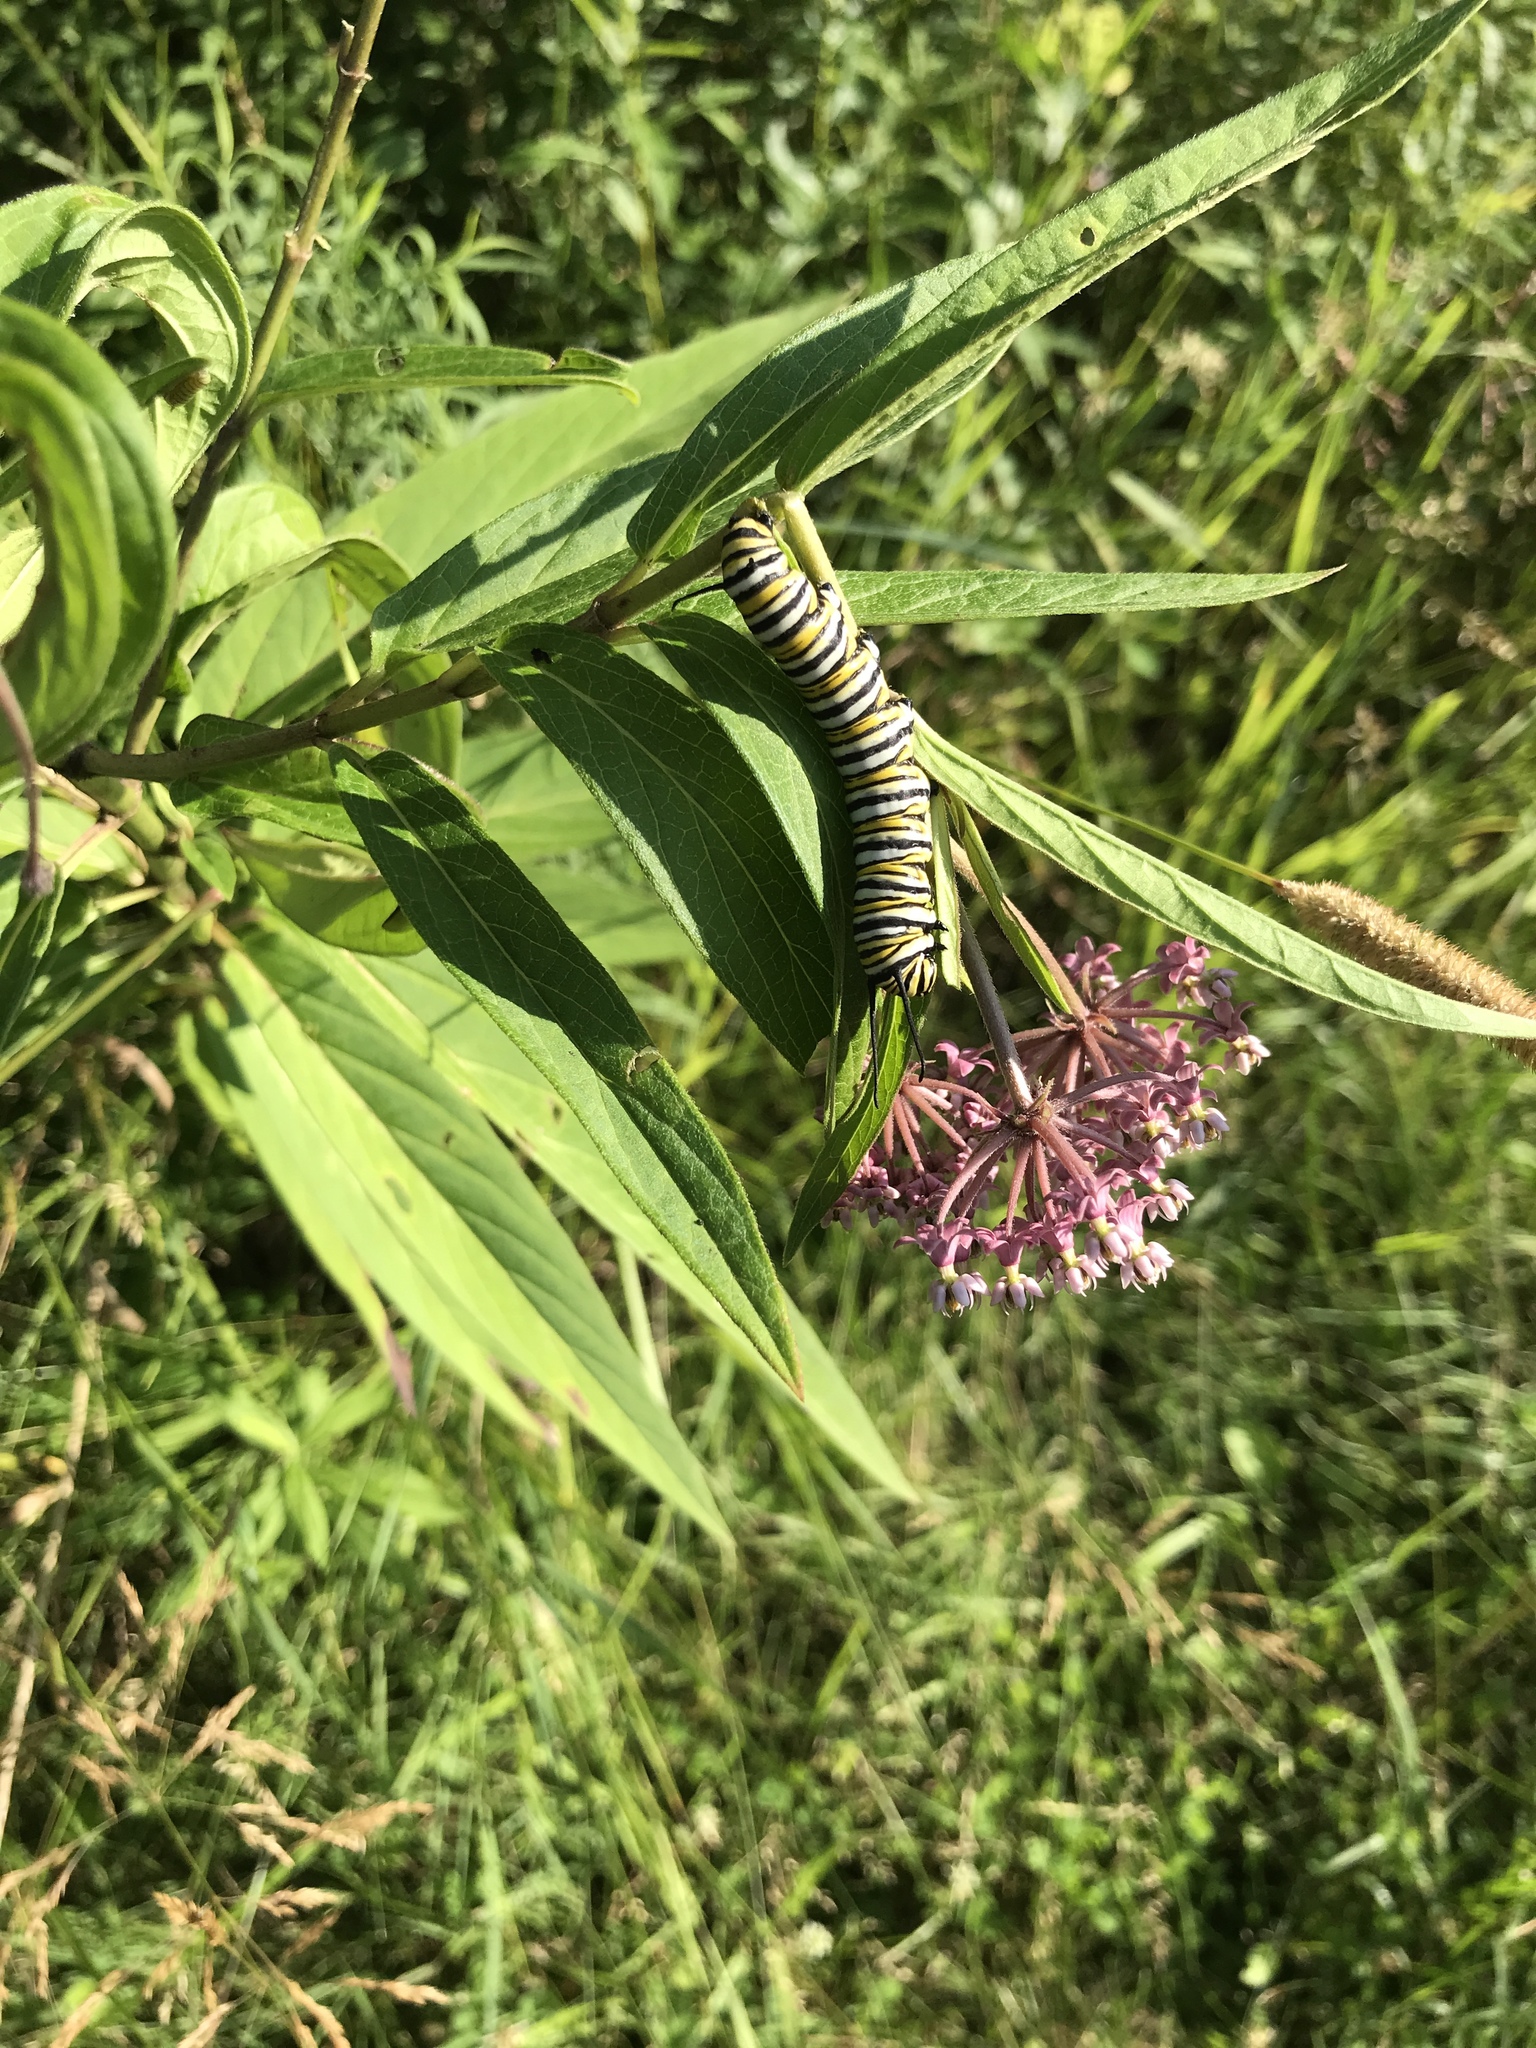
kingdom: Animalia
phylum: Arthropoda
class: Insecta
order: Lepidoptera
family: Nymphalidae
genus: Danaus
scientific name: Danaus plexippus
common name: Monarch
